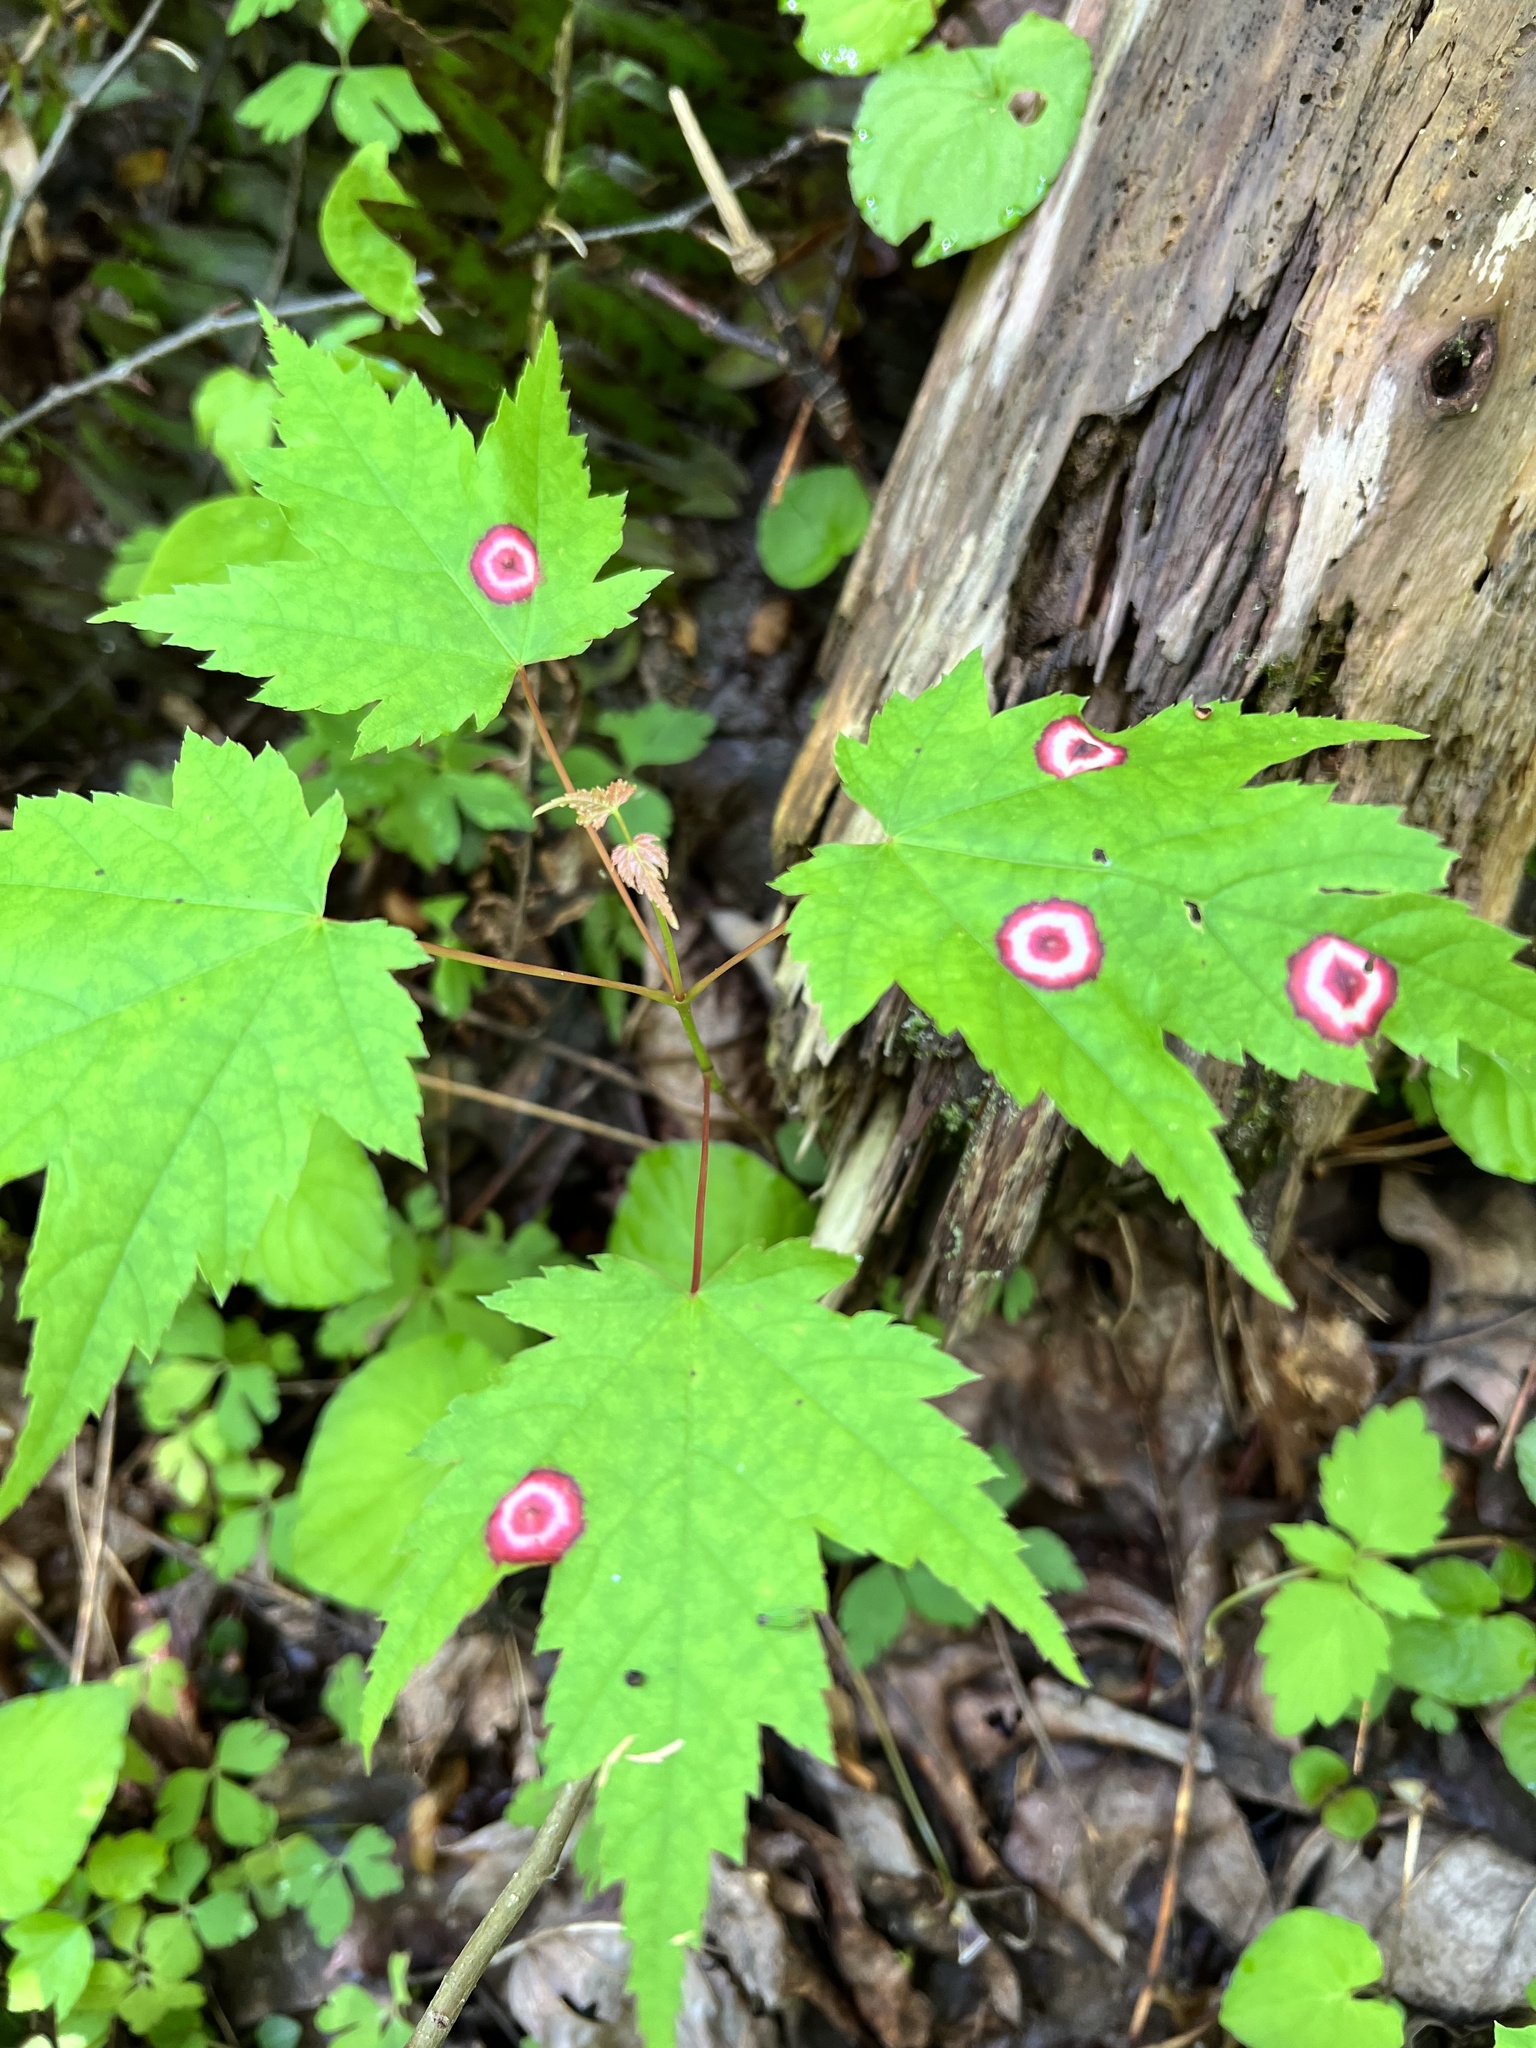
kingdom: Animalia
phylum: Arthropoda
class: Insecta
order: Diptera
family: Cecidomyiidae
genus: Acericecis
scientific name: Acericecis ocellaris
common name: Ocellate gall midge
